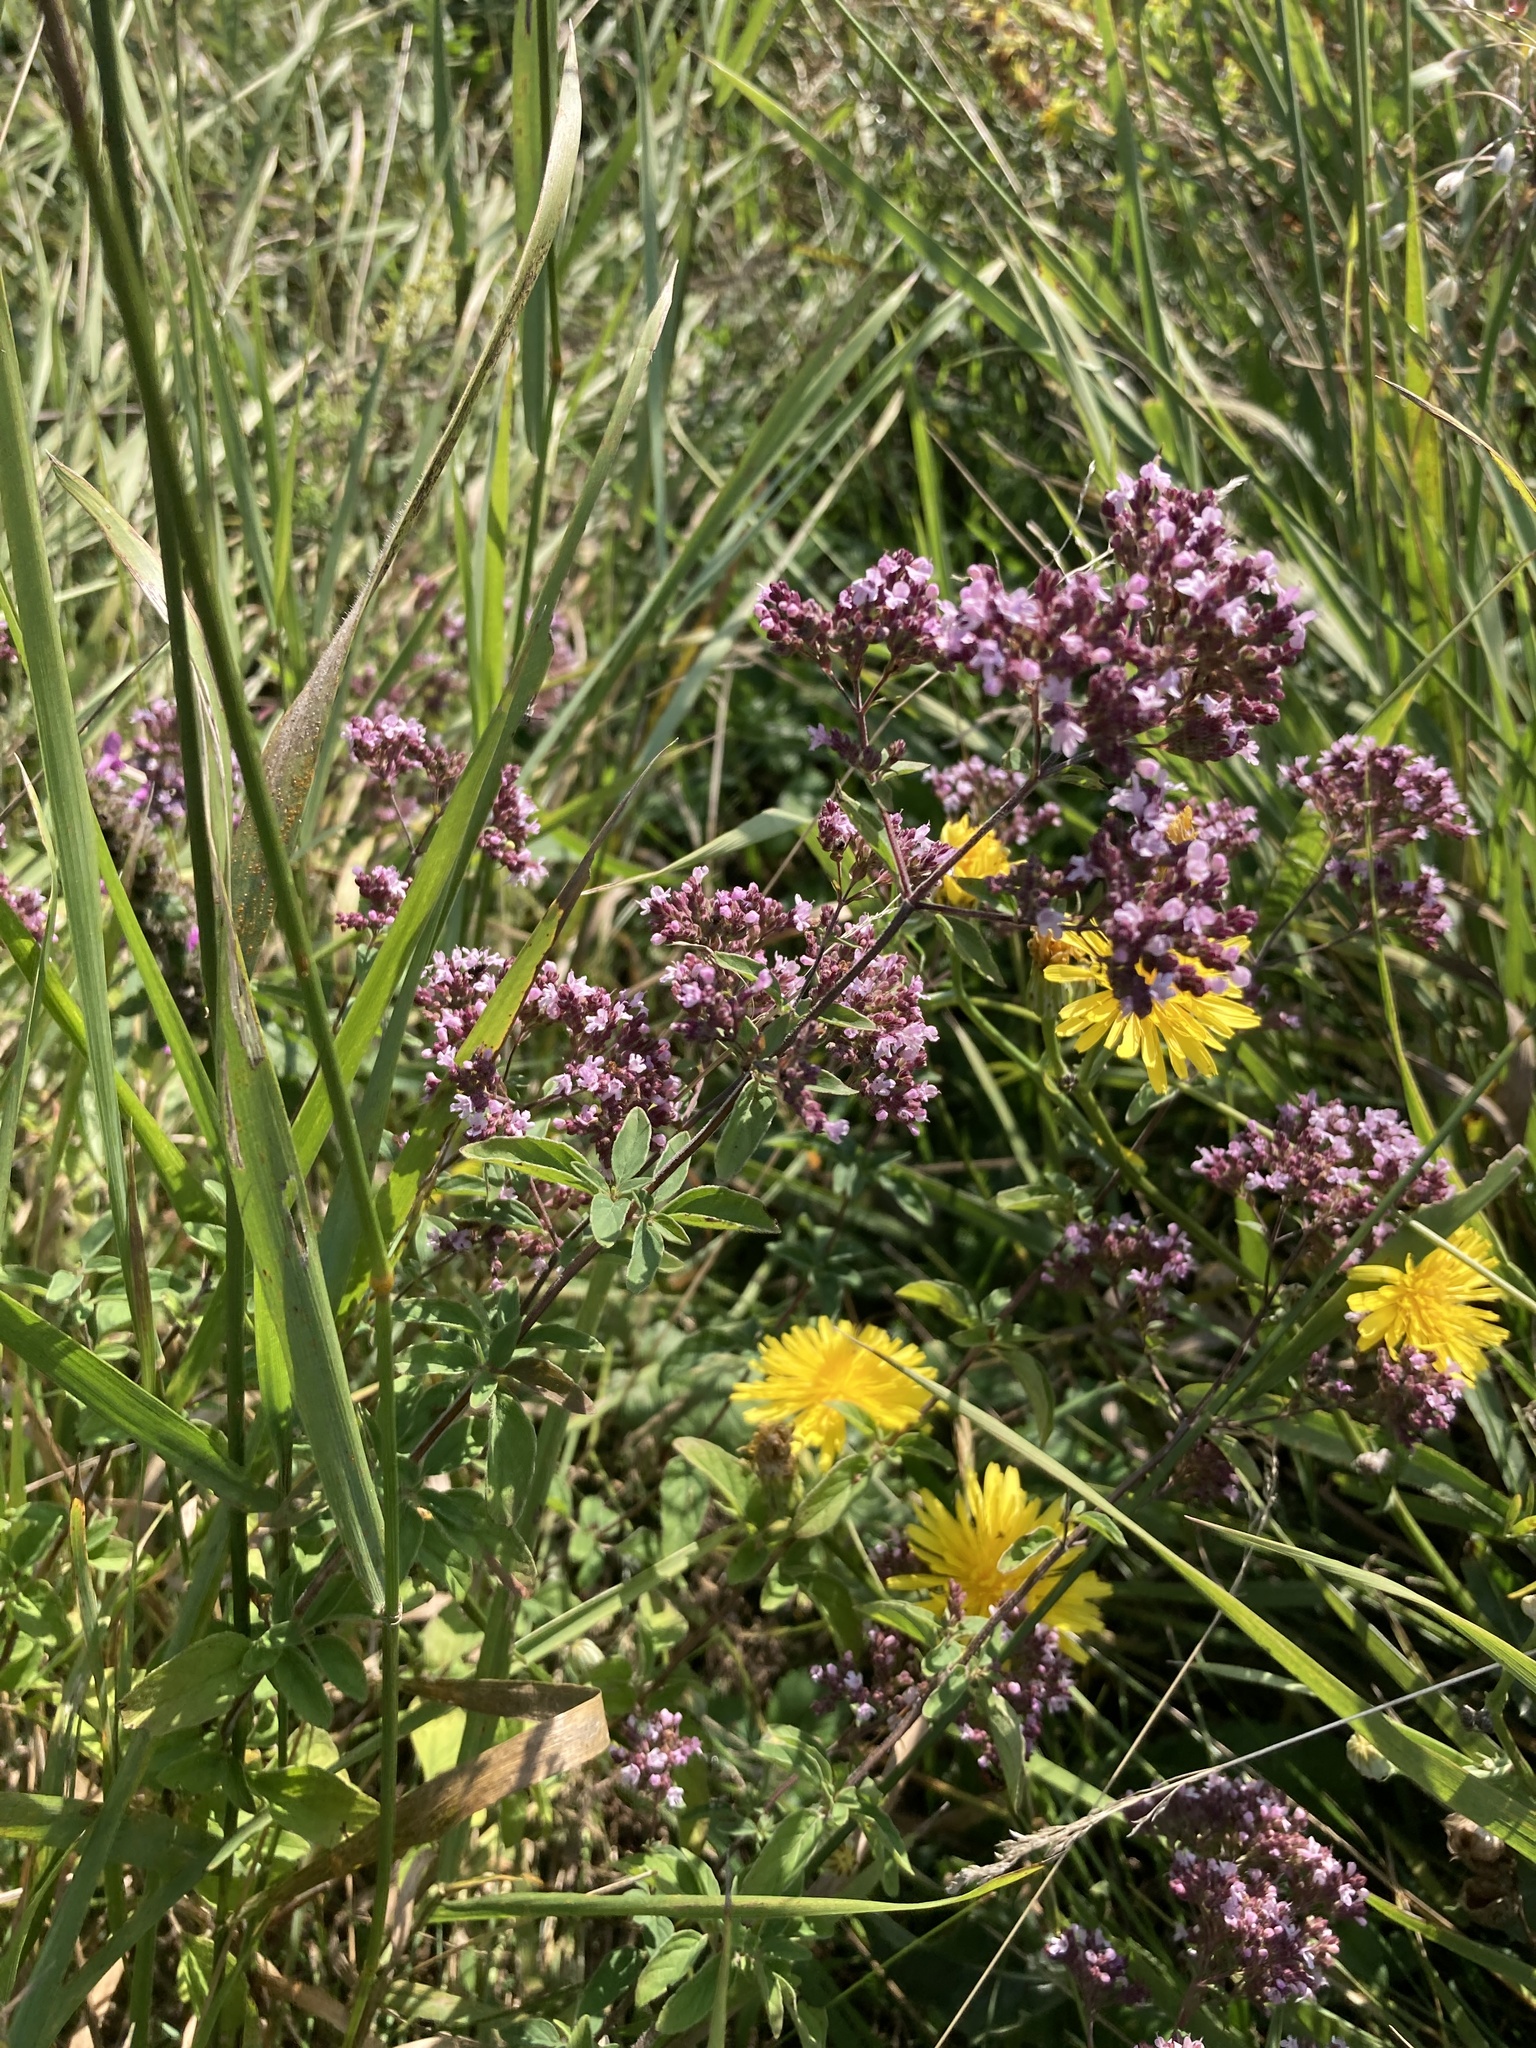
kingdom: Plantae
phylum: Tracheophyta
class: Magnoliopsida
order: Lamiales
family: Lamiaceae
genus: Origanum
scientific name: Origanum vulgare
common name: Wild marjoram
